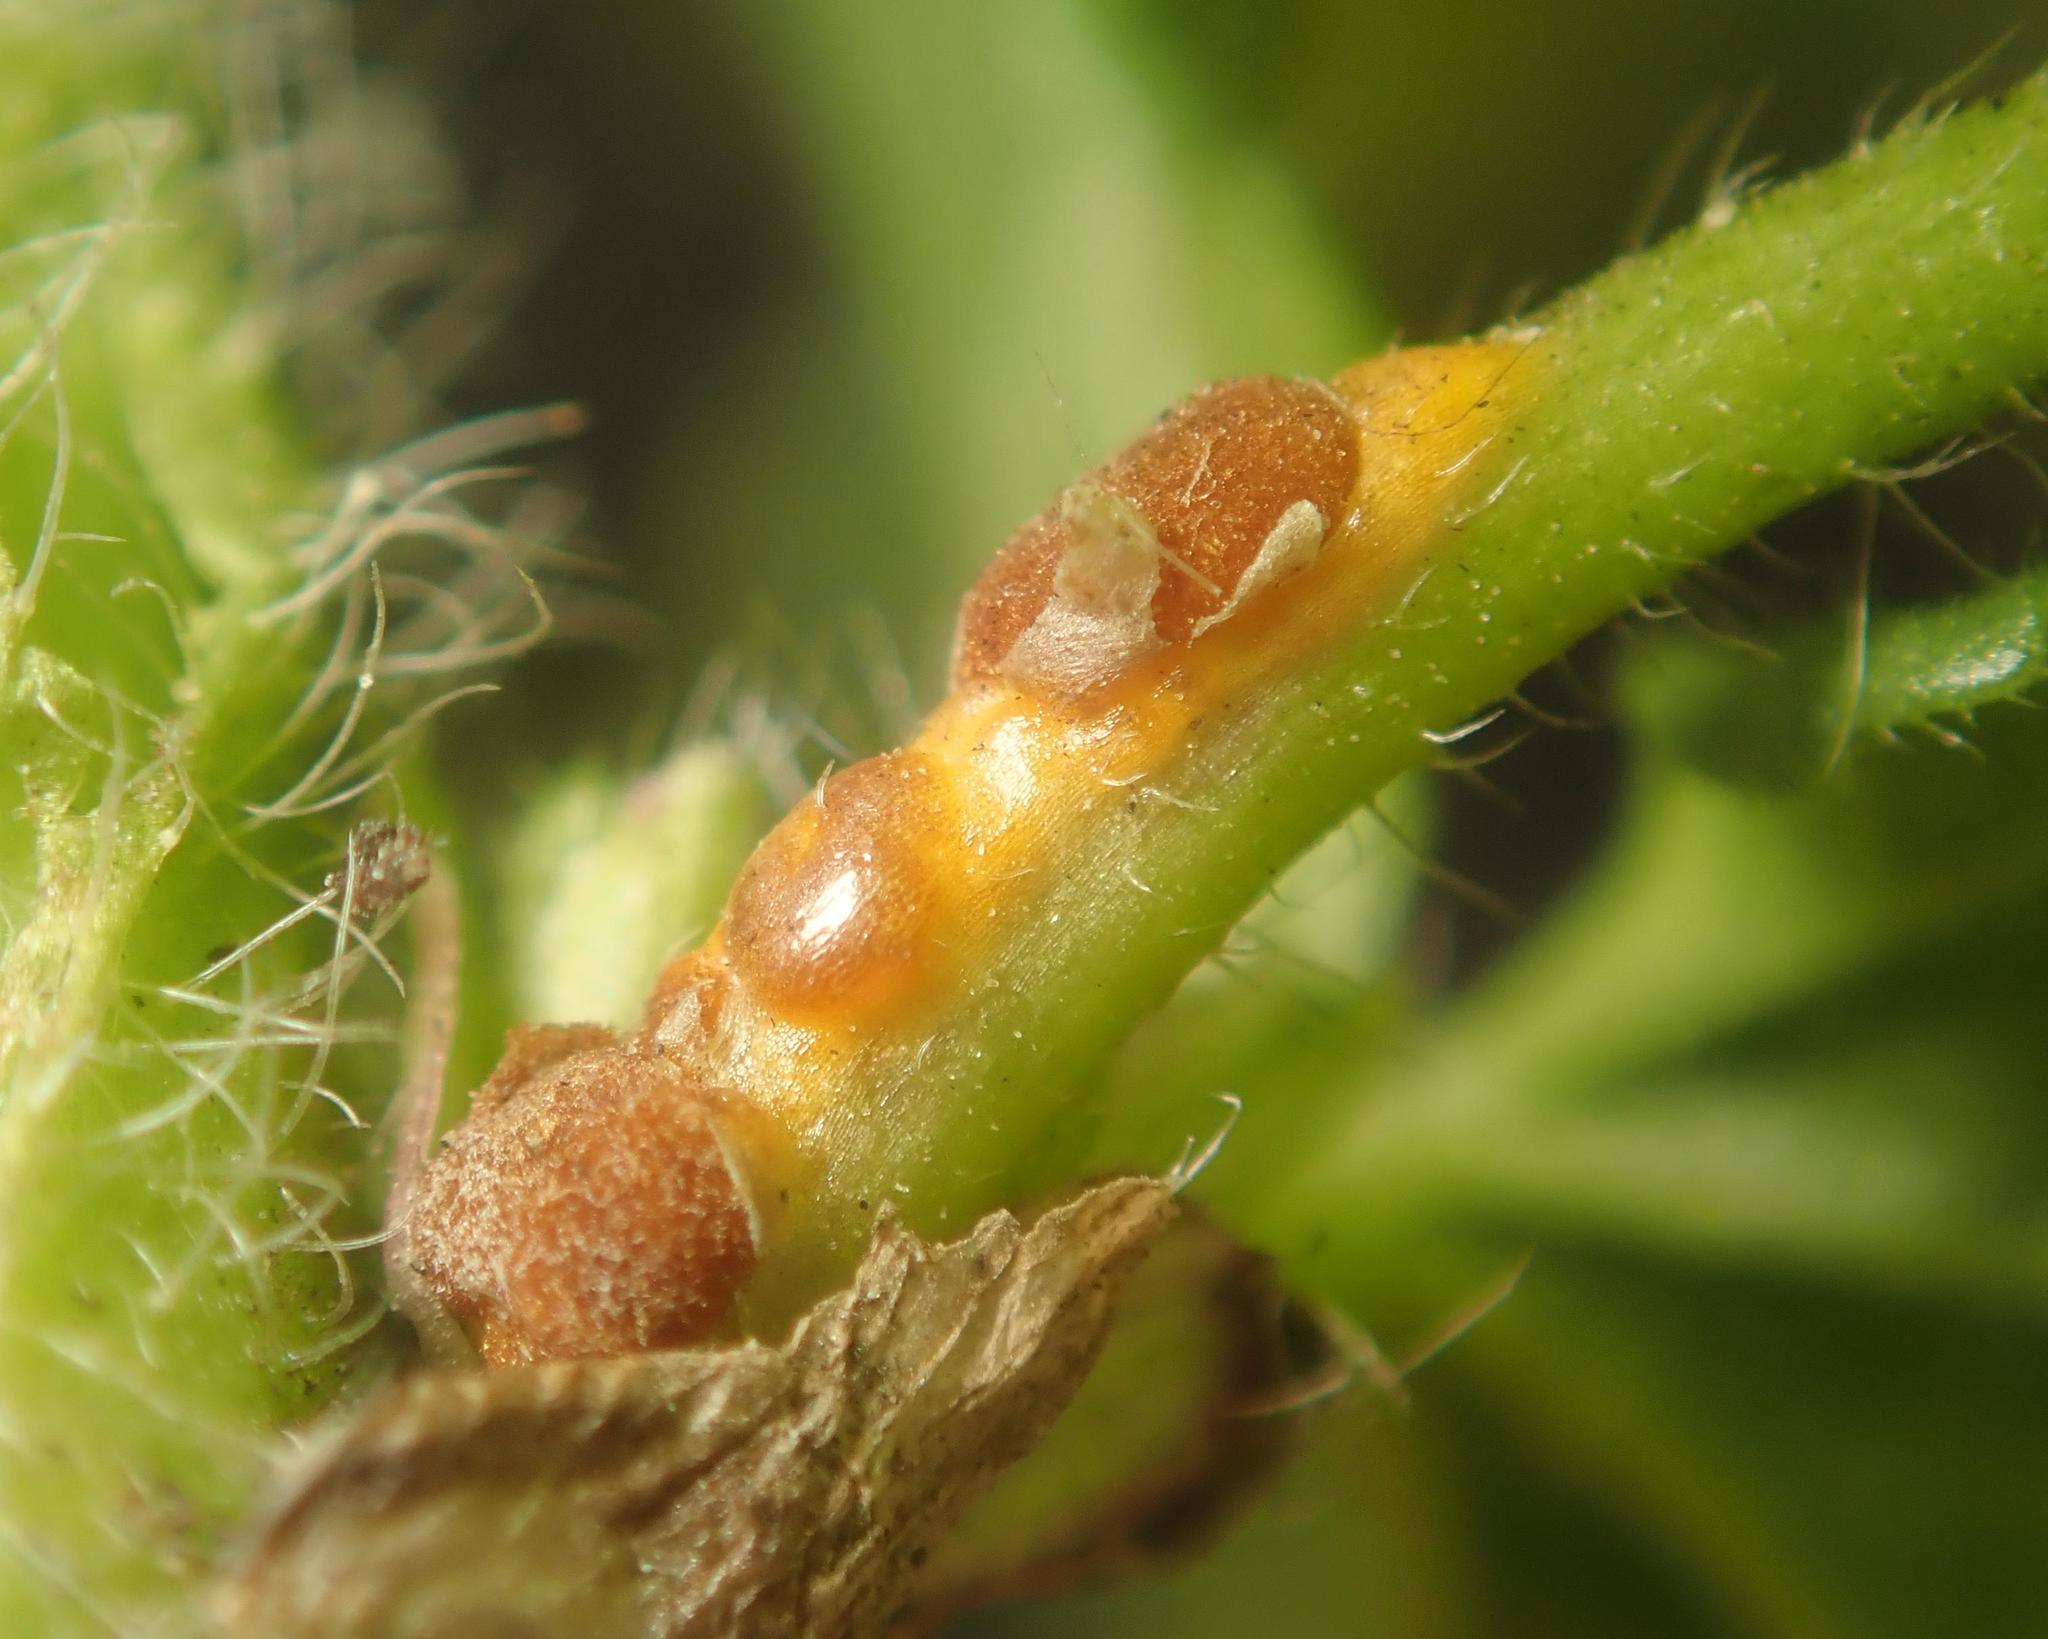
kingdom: Fungi
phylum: Basidiomycota
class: Pucciniomycetes
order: Pucciniales
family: Pucciniaceae
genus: Puccinia
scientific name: Puccinia malvacearum
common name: Hollyhock rust
